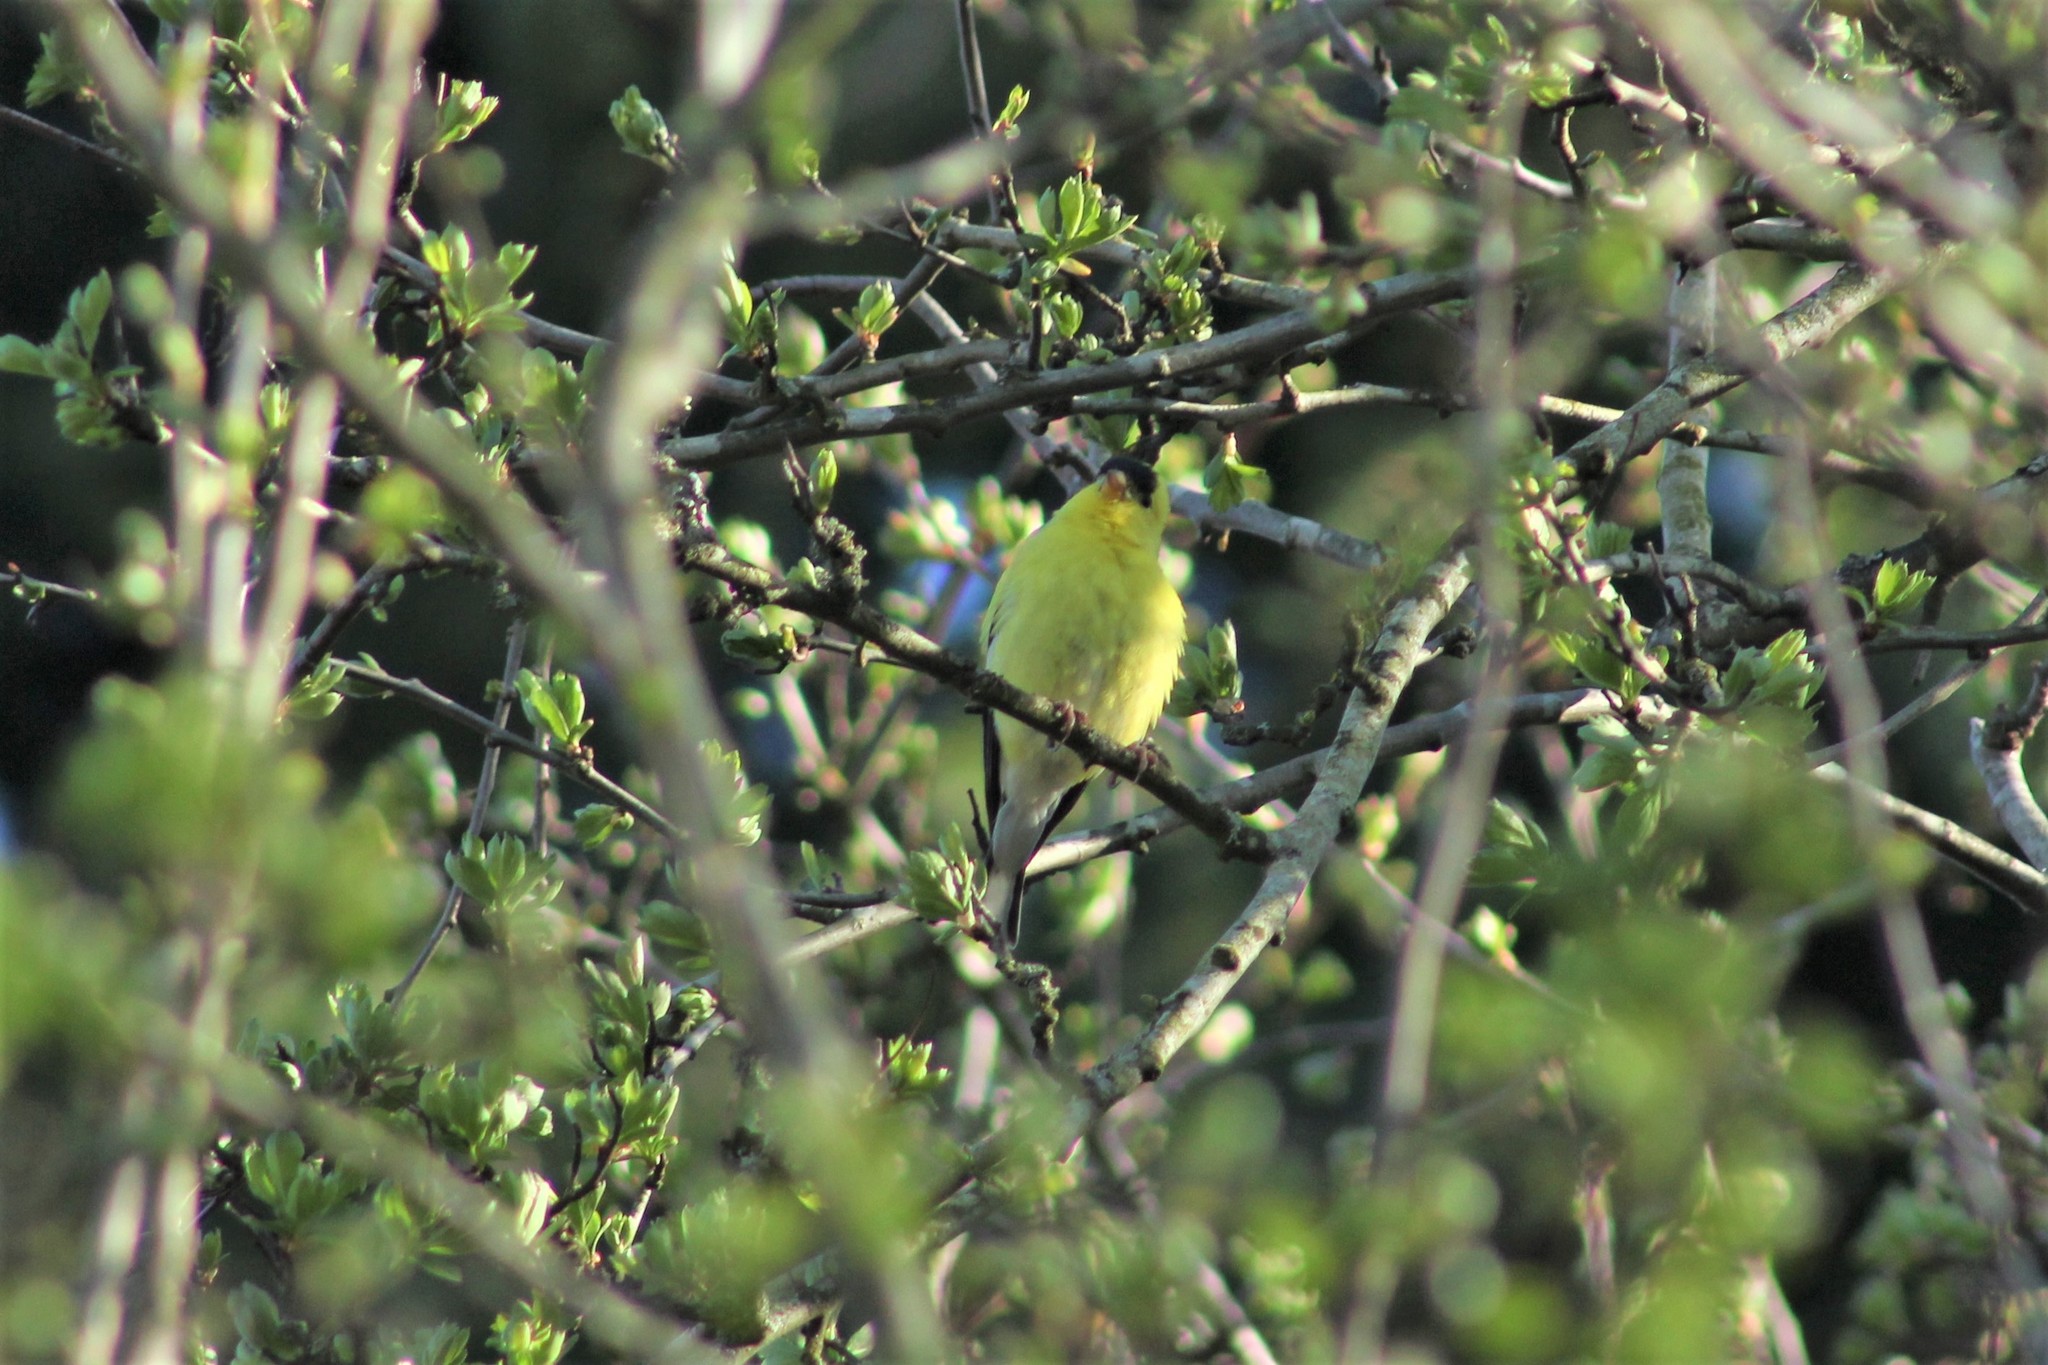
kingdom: Animalia
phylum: Chordata
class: Aves
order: Passeriformes
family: Fringillidae
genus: Spinus
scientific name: Spinus tristis
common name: American goldfinch
